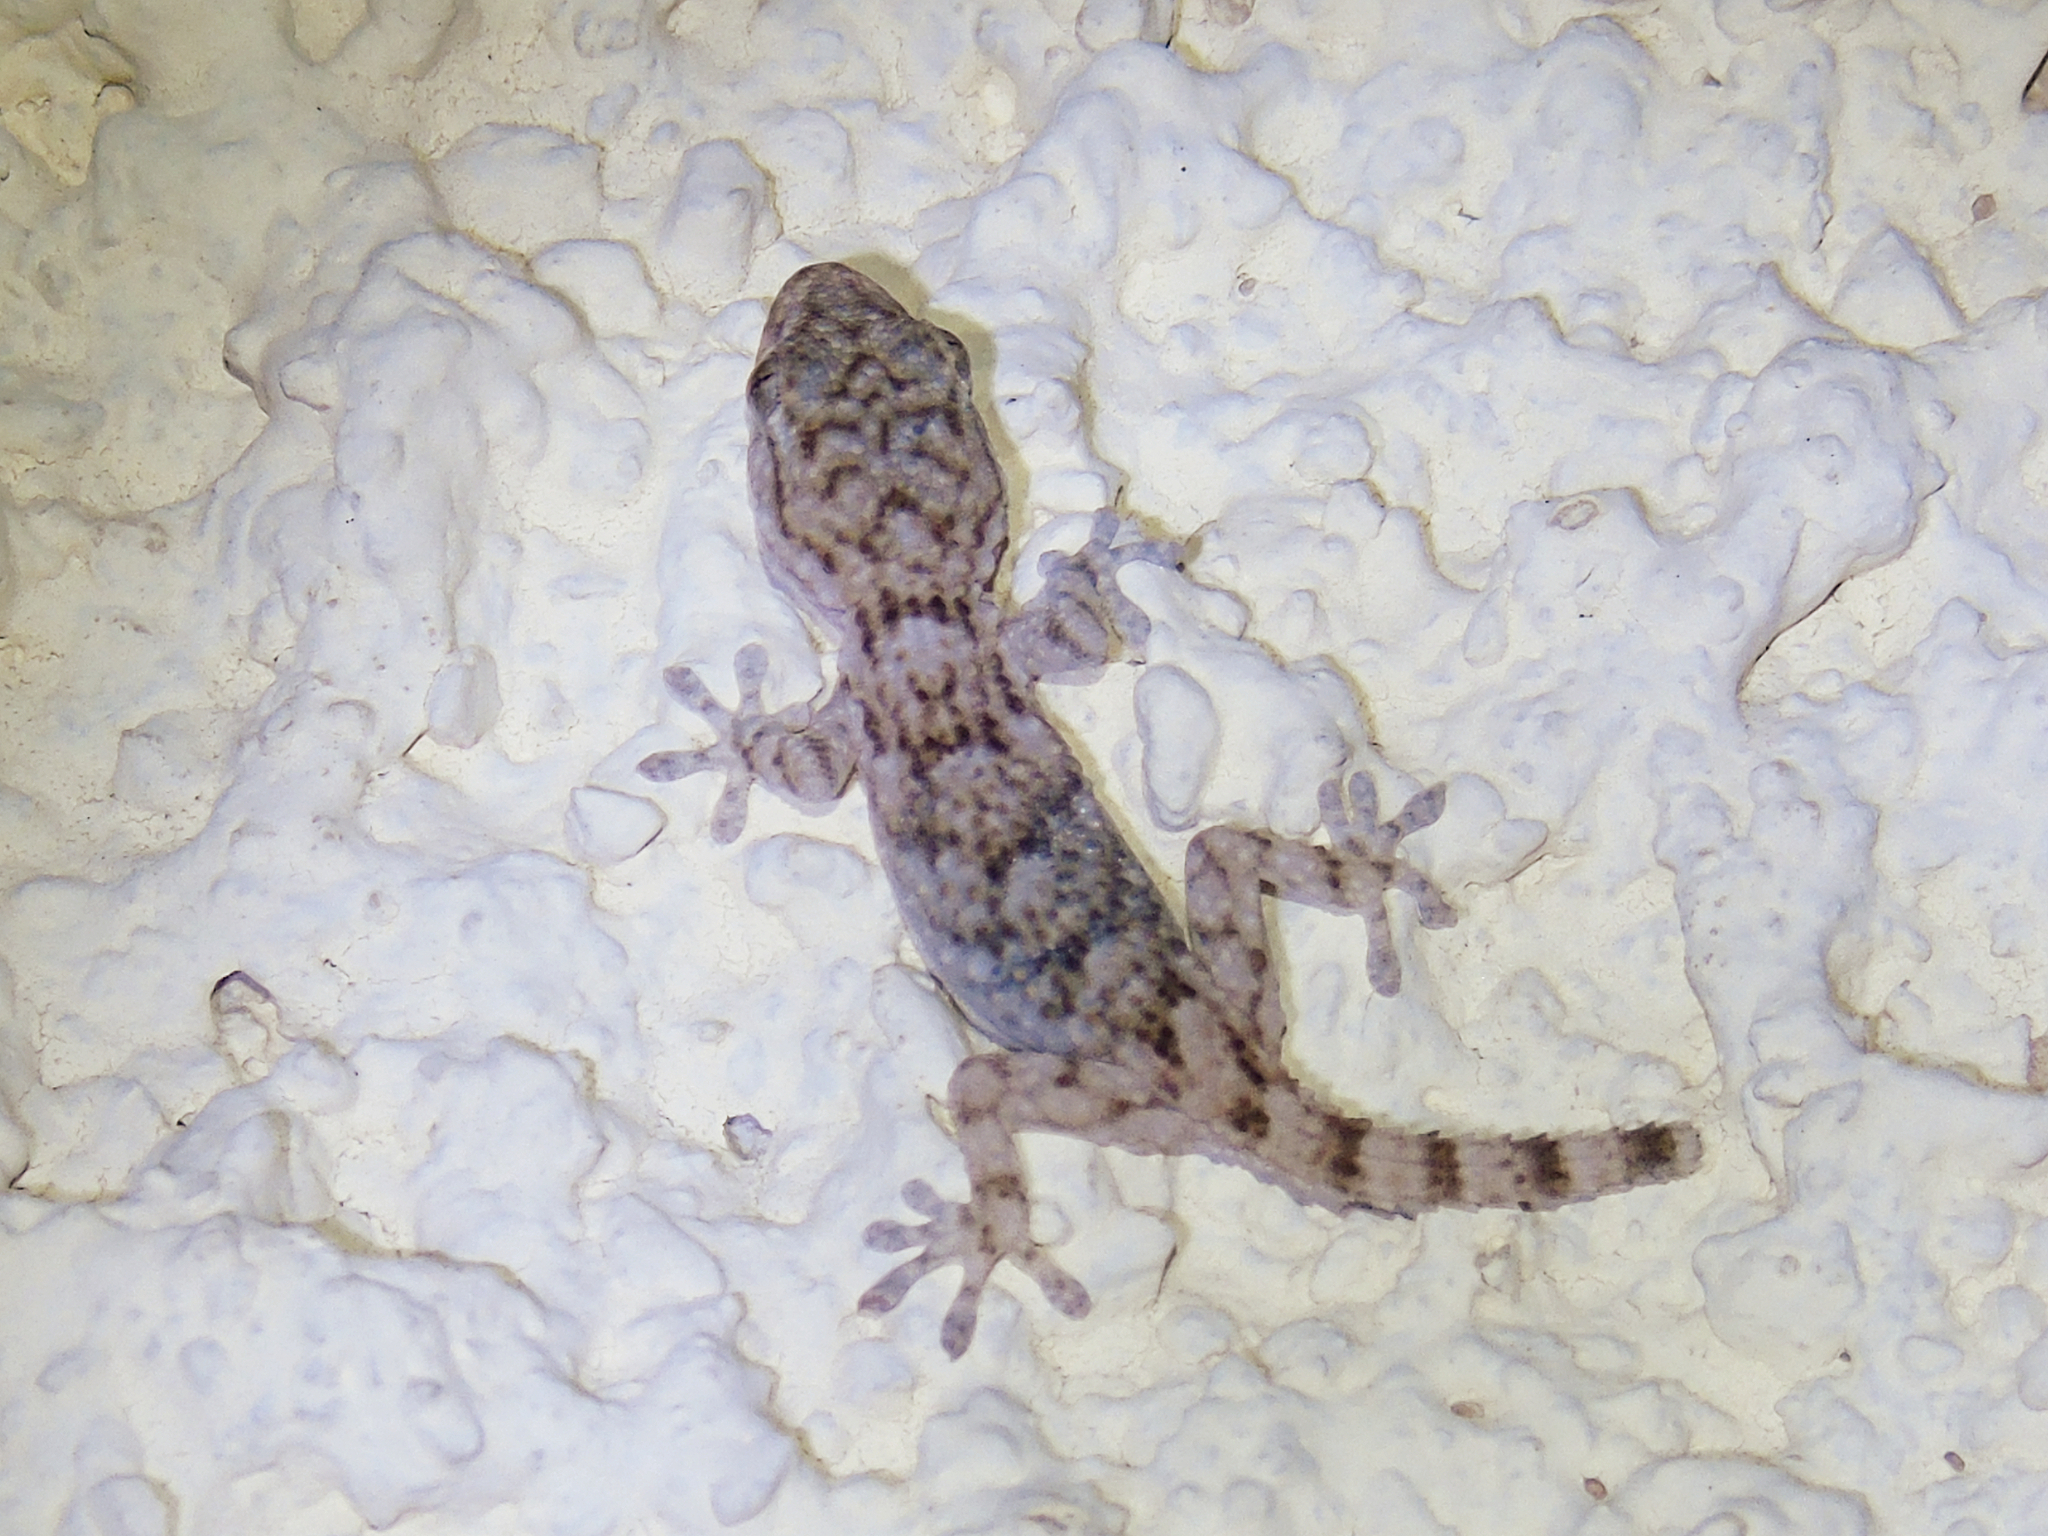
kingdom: Animalia
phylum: Chordata
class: Squamata
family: Phyllodactylidae
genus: Tarentola
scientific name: Tarentola mauritanica
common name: Moorish gecko
